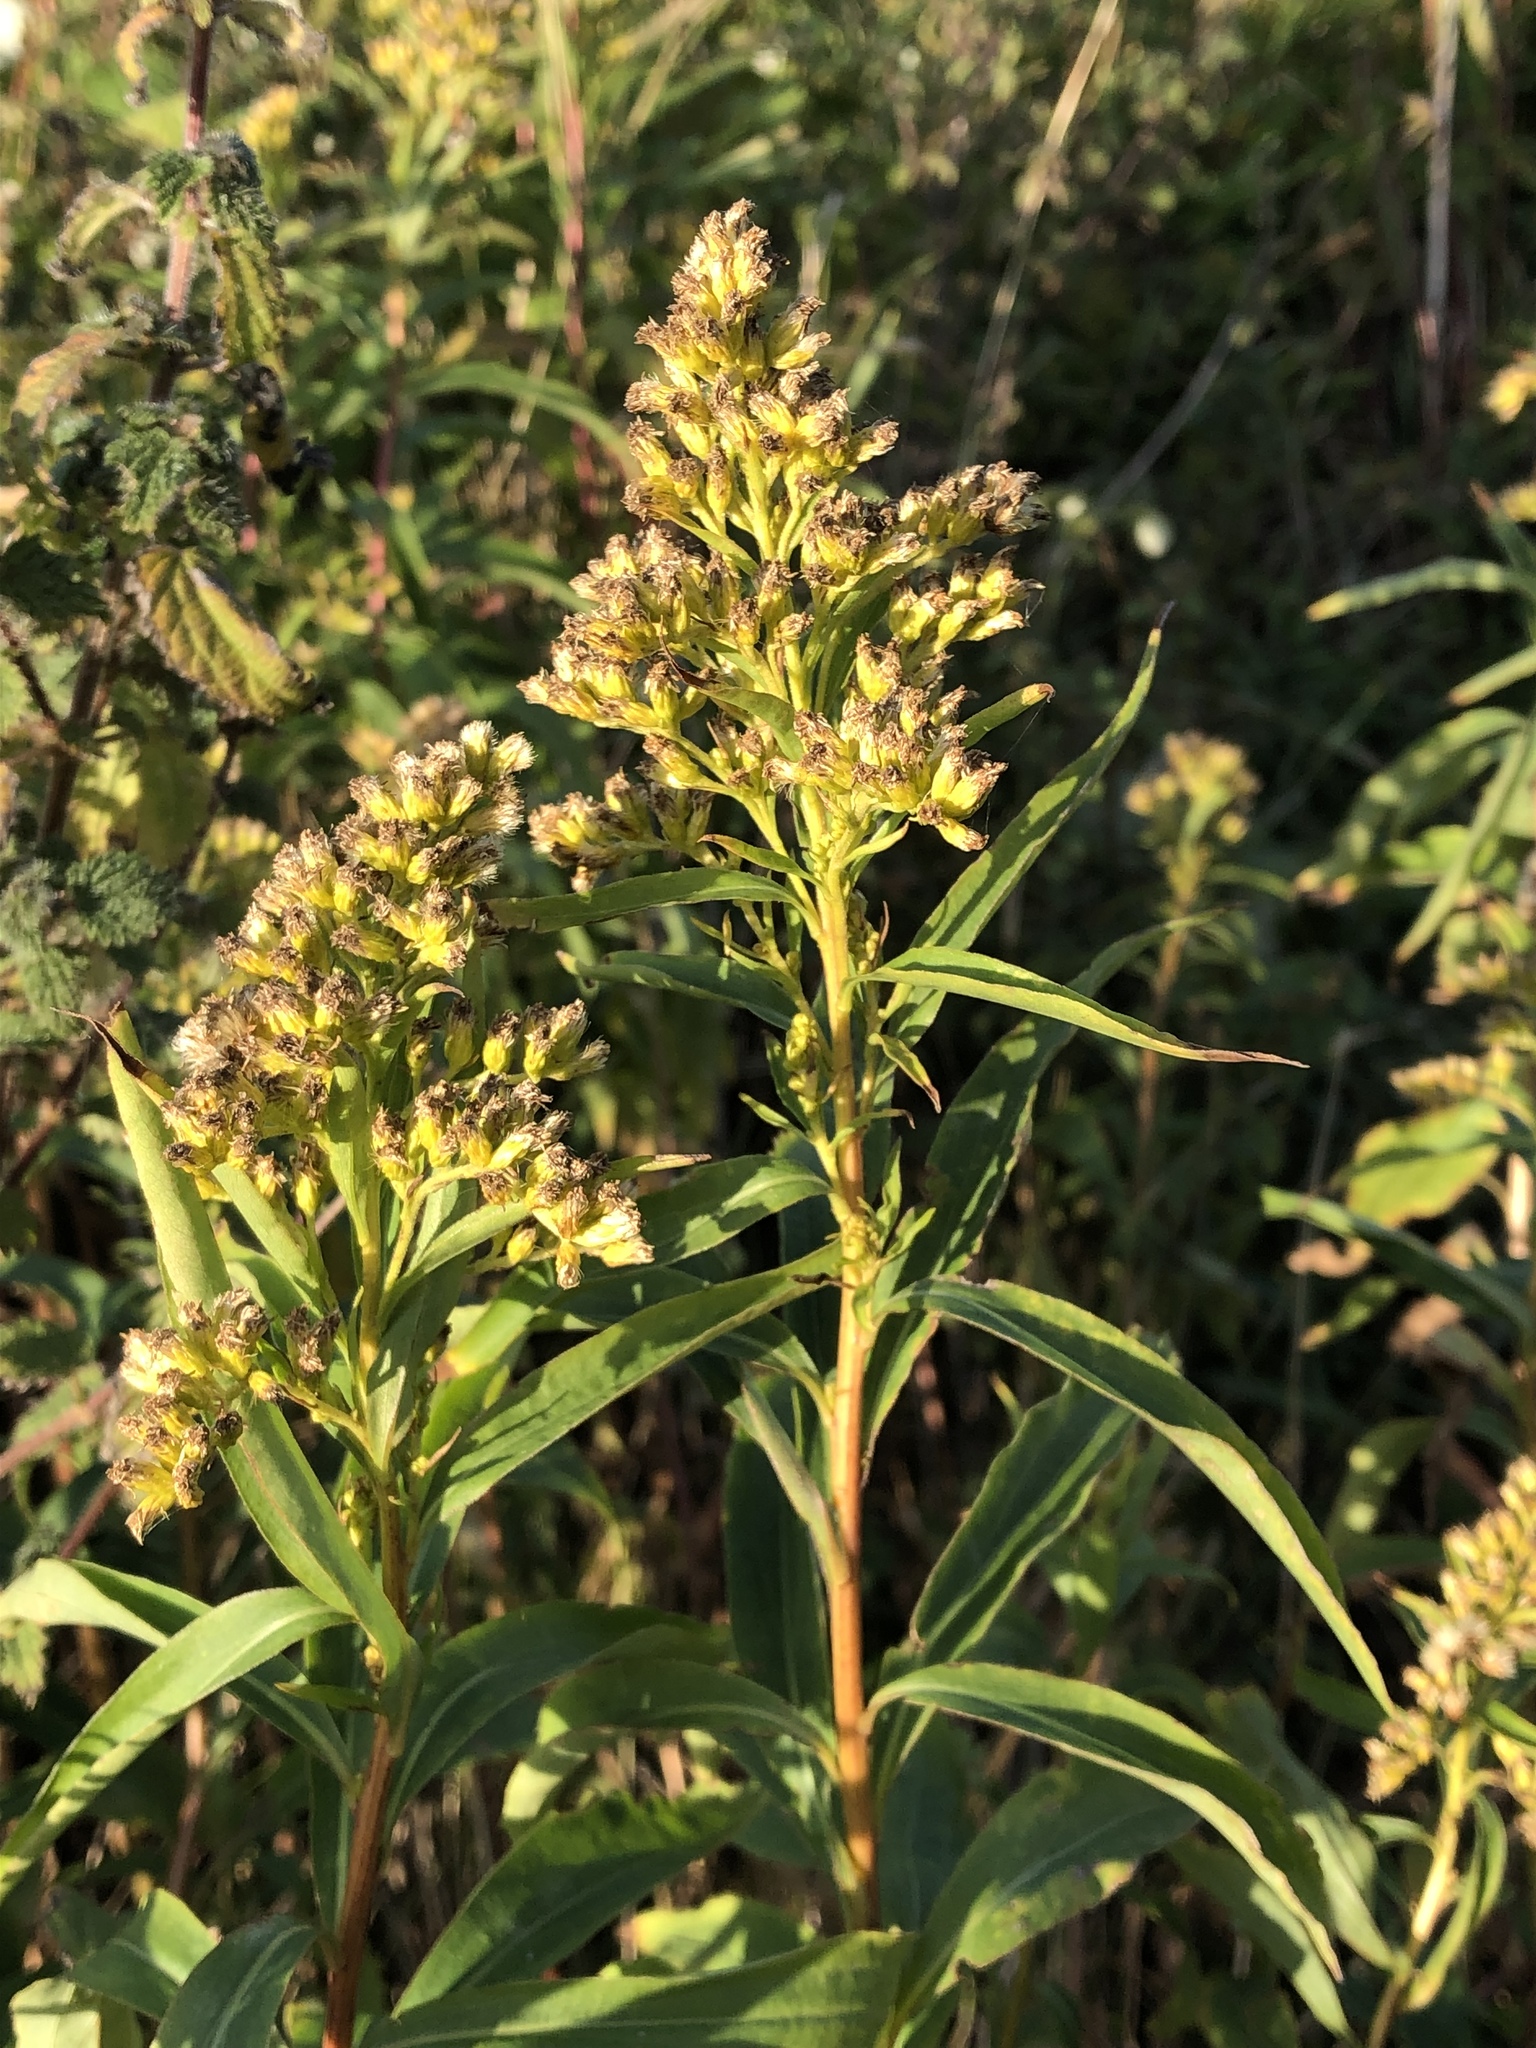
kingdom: Plantae
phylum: Tracheophyta
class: Magnoliopsida
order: Asterales
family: Asteraceae
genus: Solidago
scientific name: Solidago gigantea
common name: Giant goldenrod
